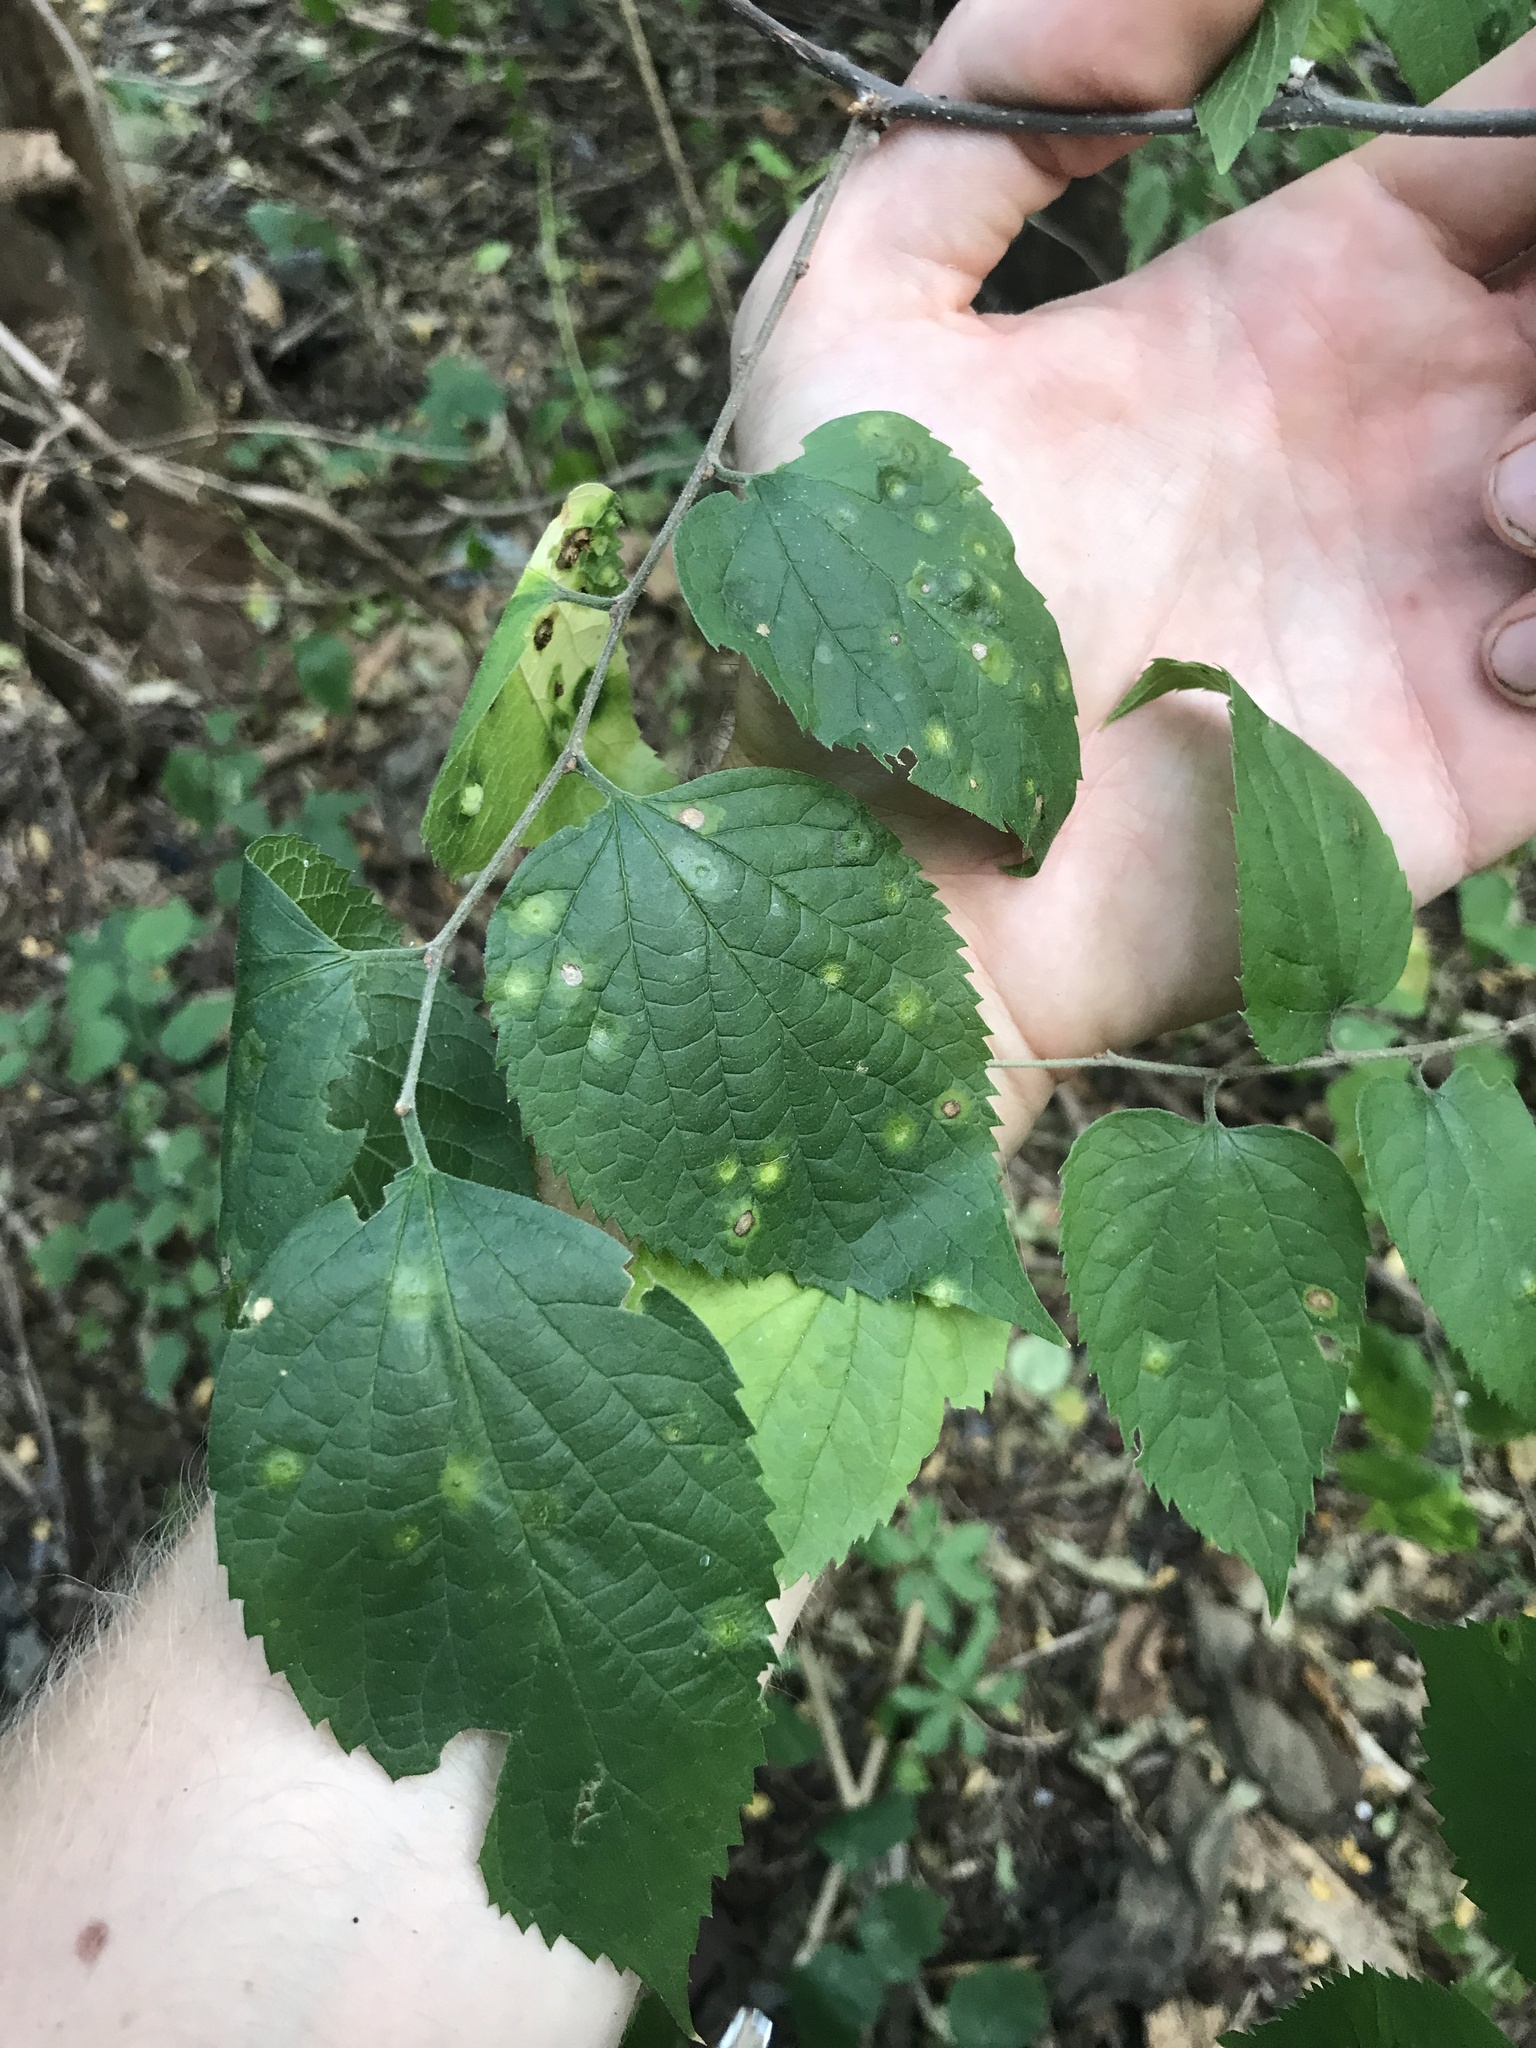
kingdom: Plantae
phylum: Tracheophyta
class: Magnoliopsida
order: Rosales
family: Cannabaceae
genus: Celtis
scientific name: Celtis occidentalis
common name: Common hackberry
